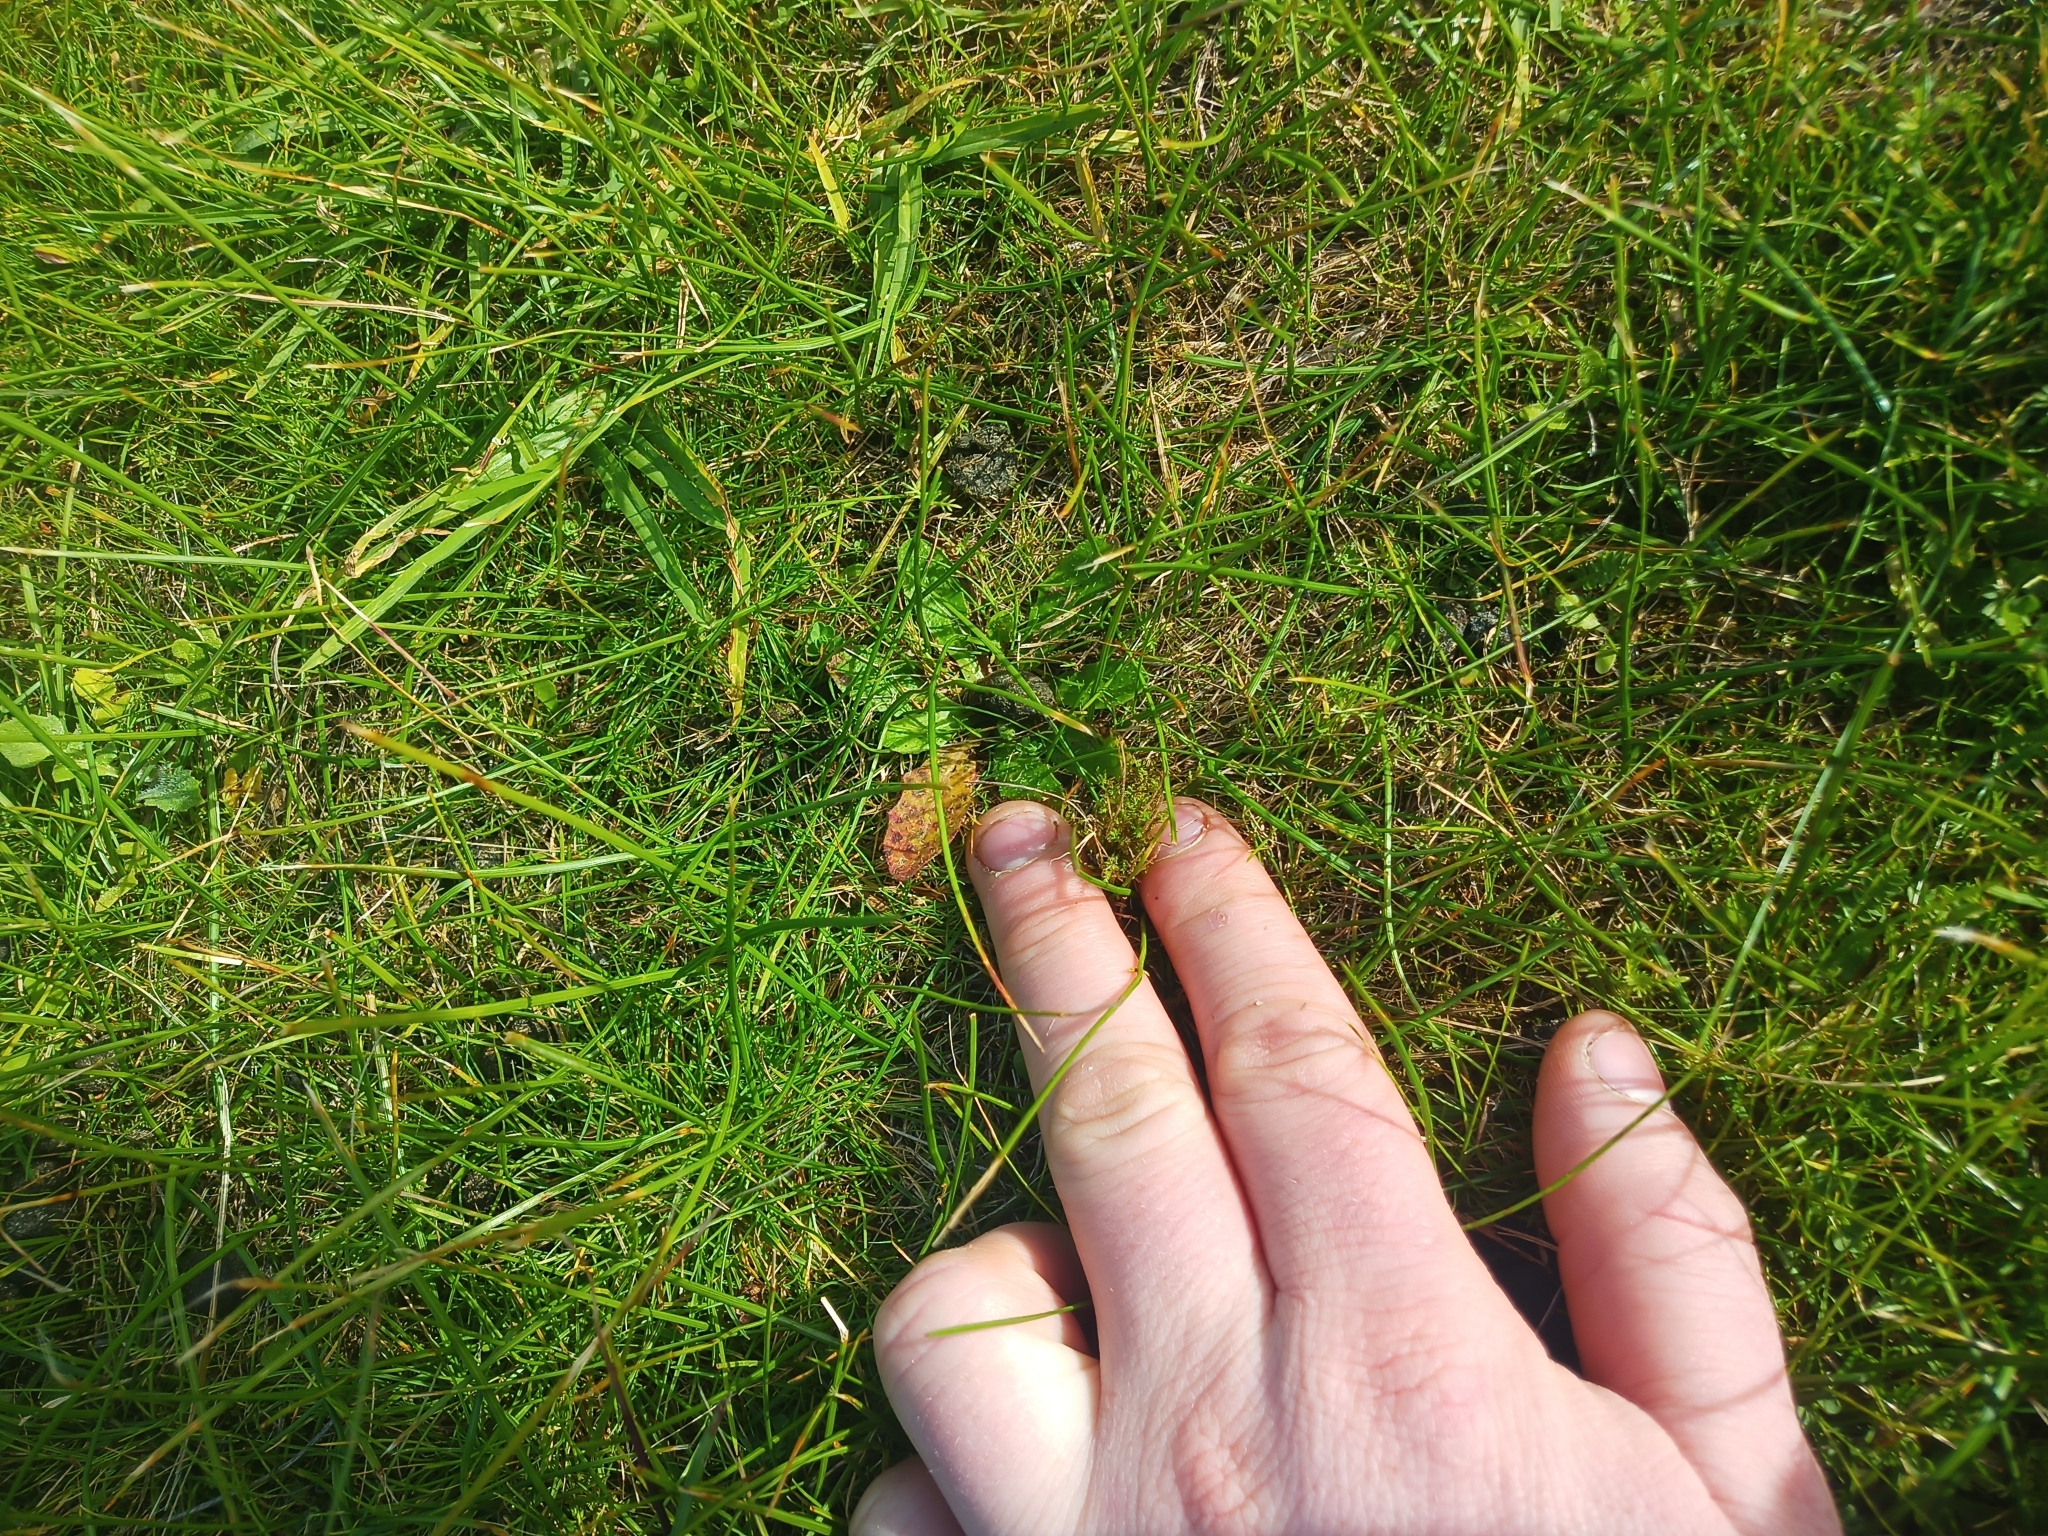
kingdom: Plantae
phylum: Bryophyta
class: Bryopsida
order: Pottiales
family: Pottiaceae
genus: Triquetrella
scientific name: Triquetrella papillata
